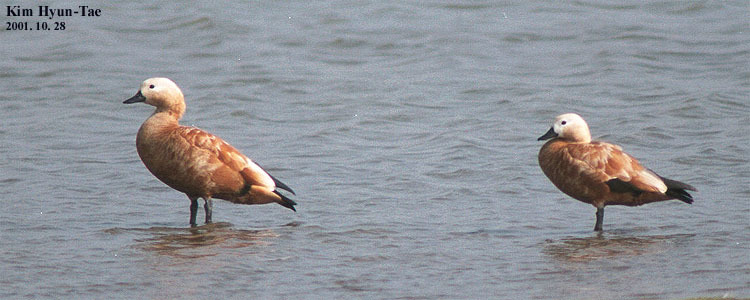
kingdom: Animalia
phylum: Chordata
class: Aves
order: Anseriformes
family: Anatidae
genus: Tadorna
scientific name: Tadorna ferruginea
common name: Ruddy shelduck
